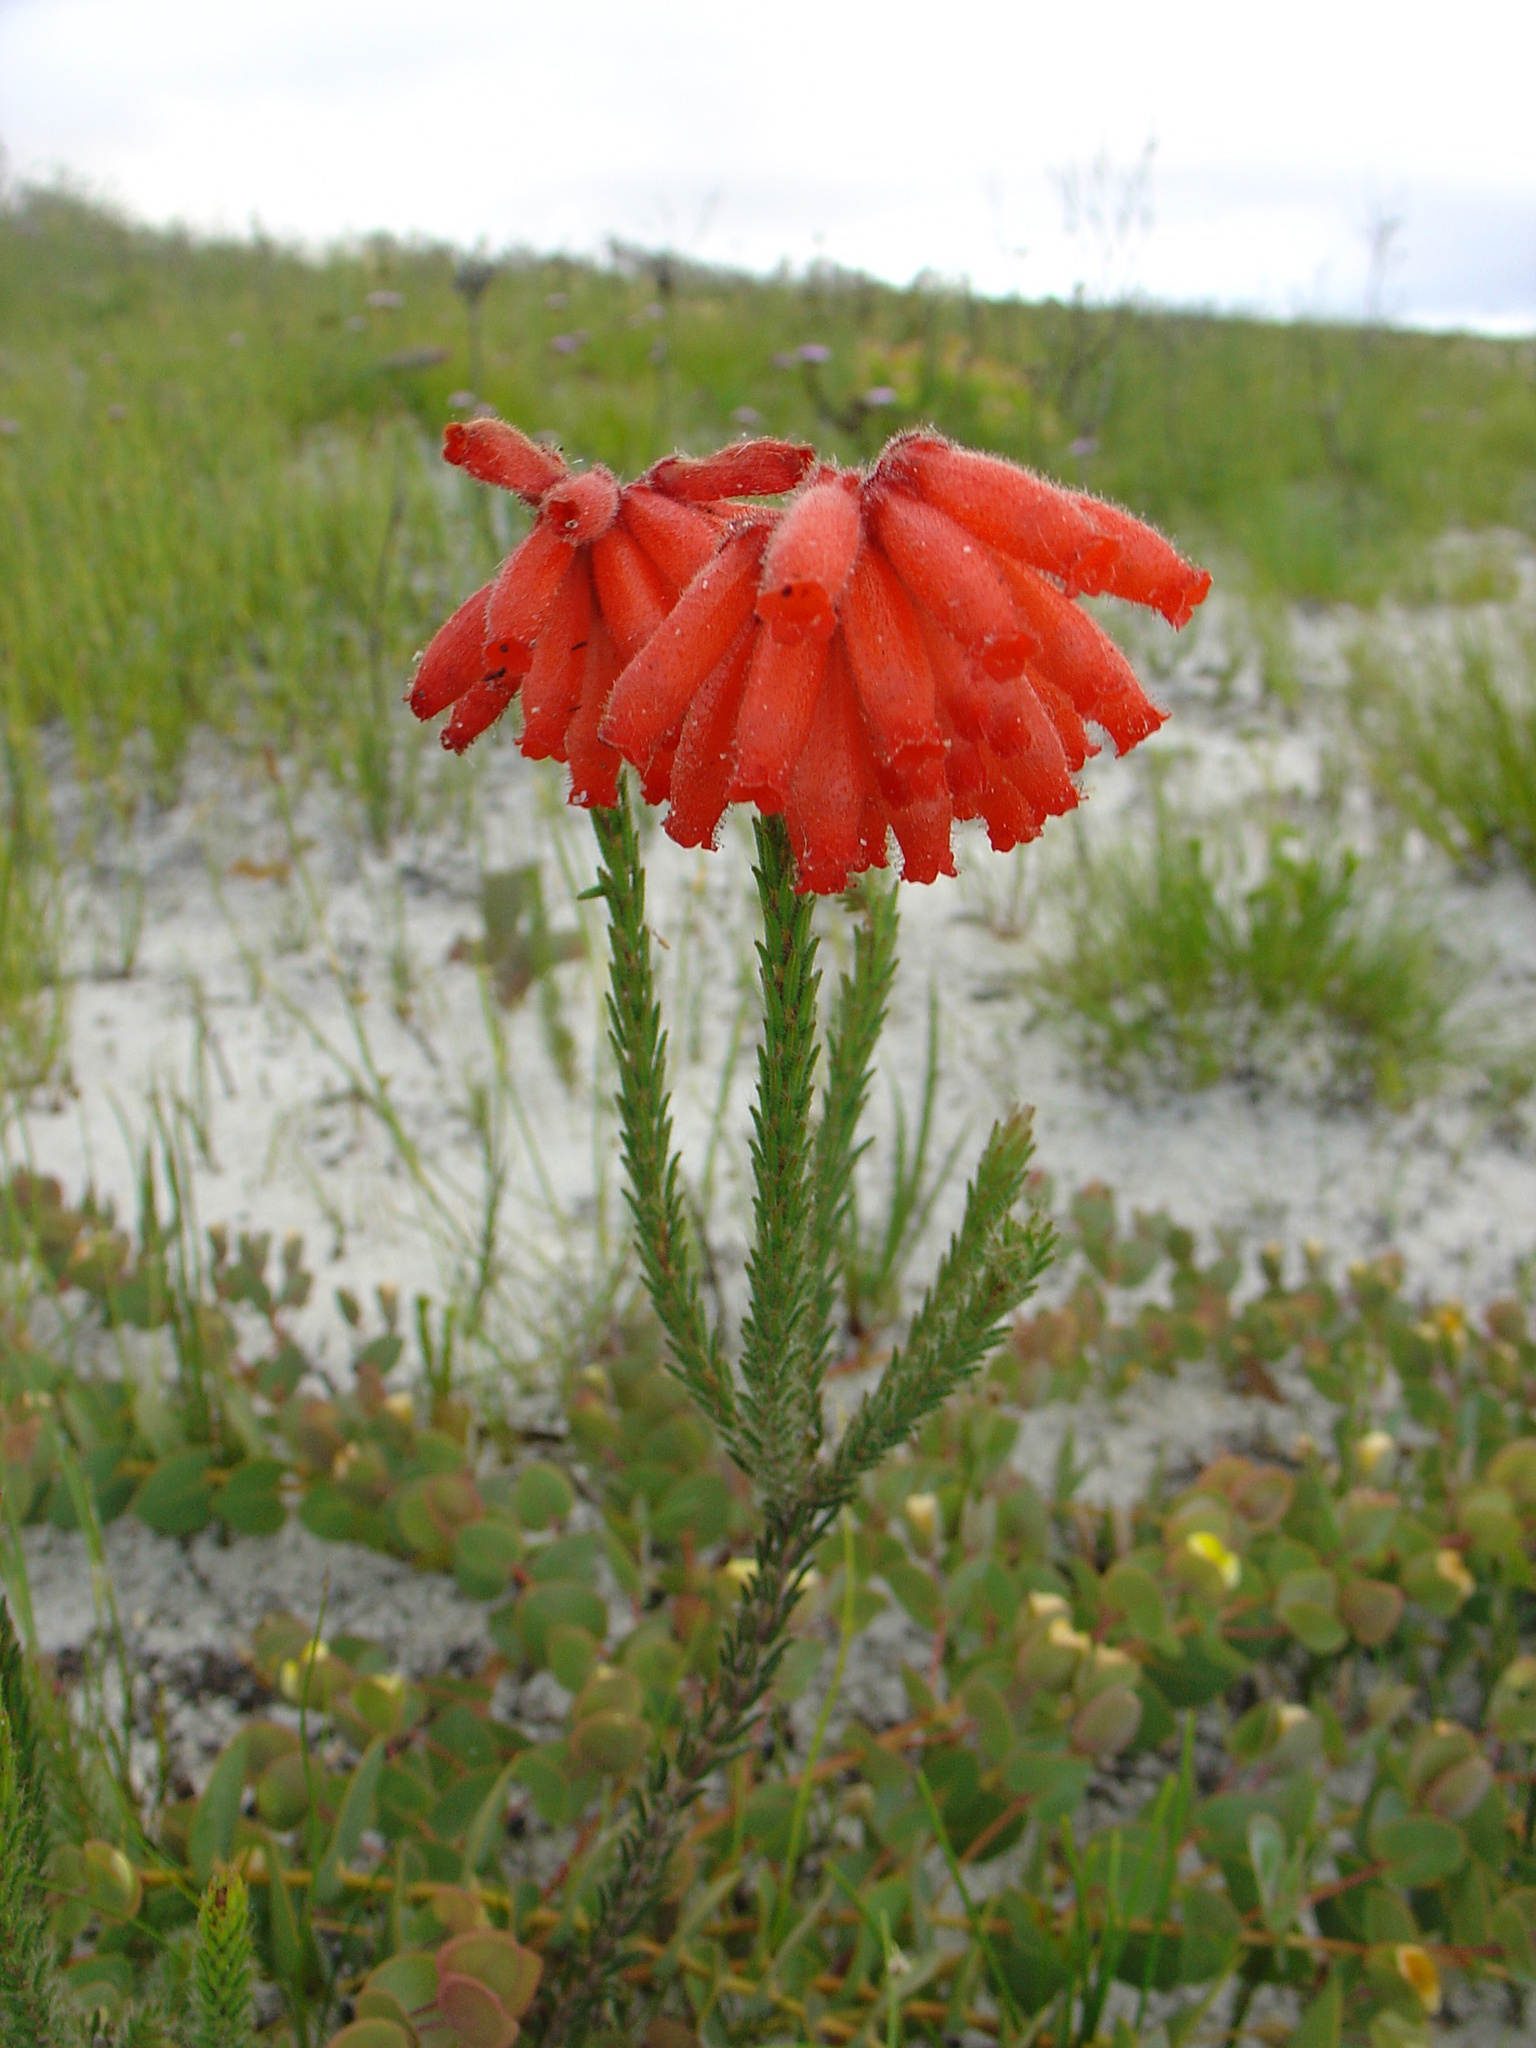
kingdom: Plantae
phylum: Tracheophyta
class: Magnoliopsida
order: Ericales
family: Ericaceae
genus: Erica
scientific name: Erica cerinthoides
